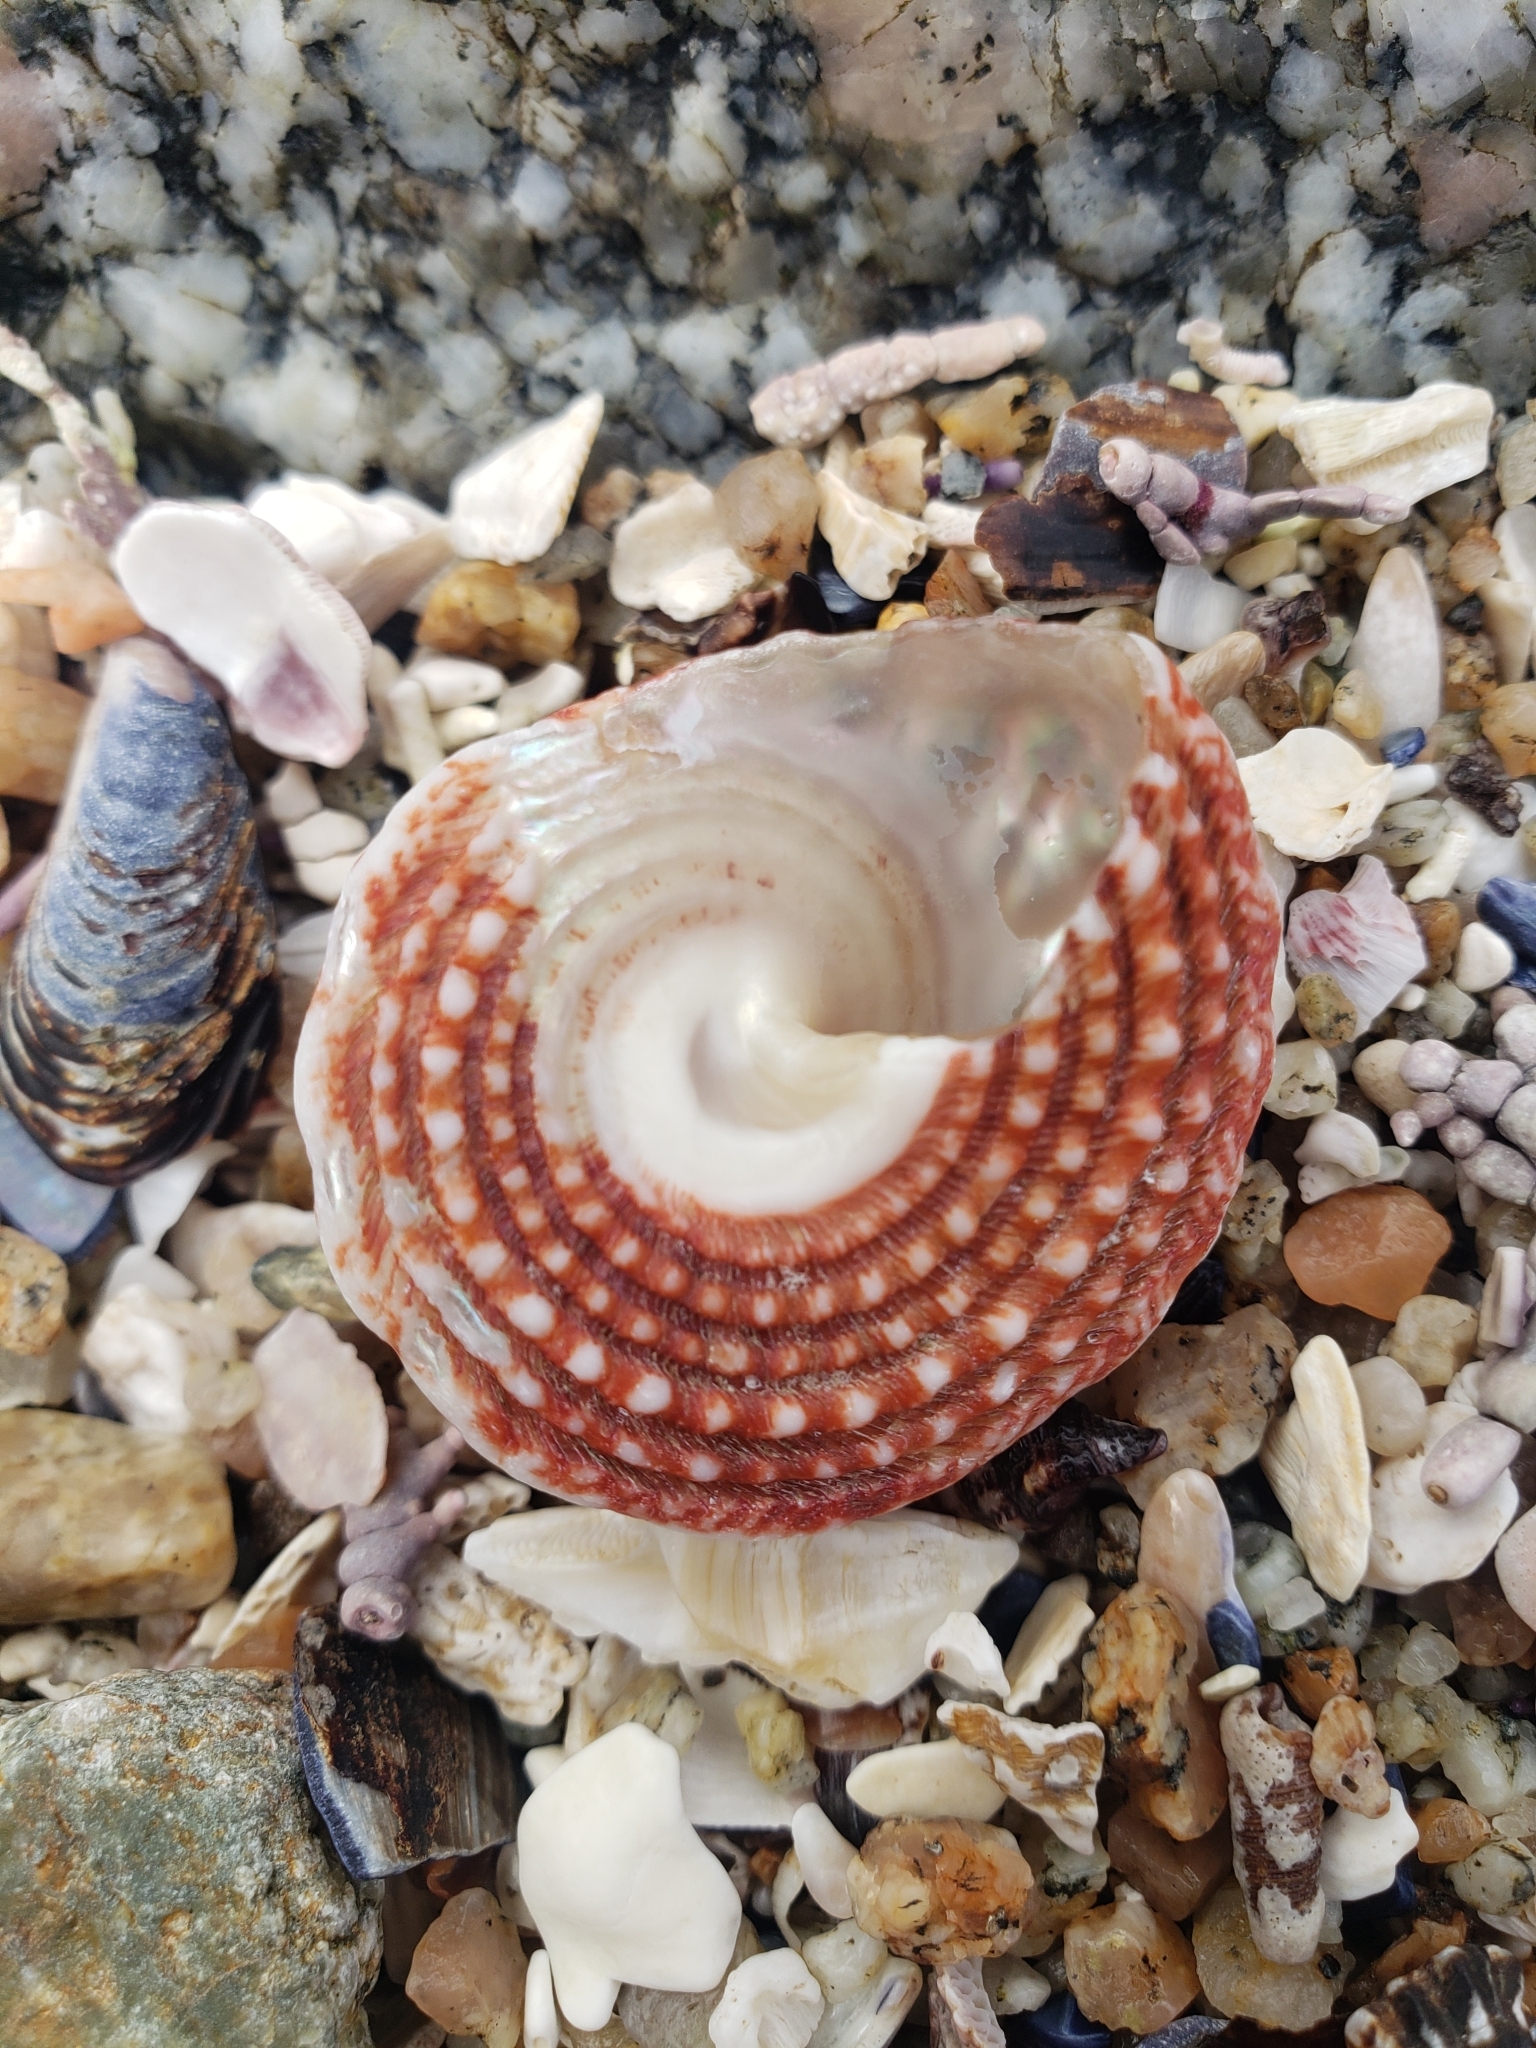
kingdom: Animalia
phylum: Mollusca
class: Gastropoda
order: Trochida
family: Turbinidae
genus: Pomaulax
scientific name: Pomaulax gibberosus
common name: Red turban
